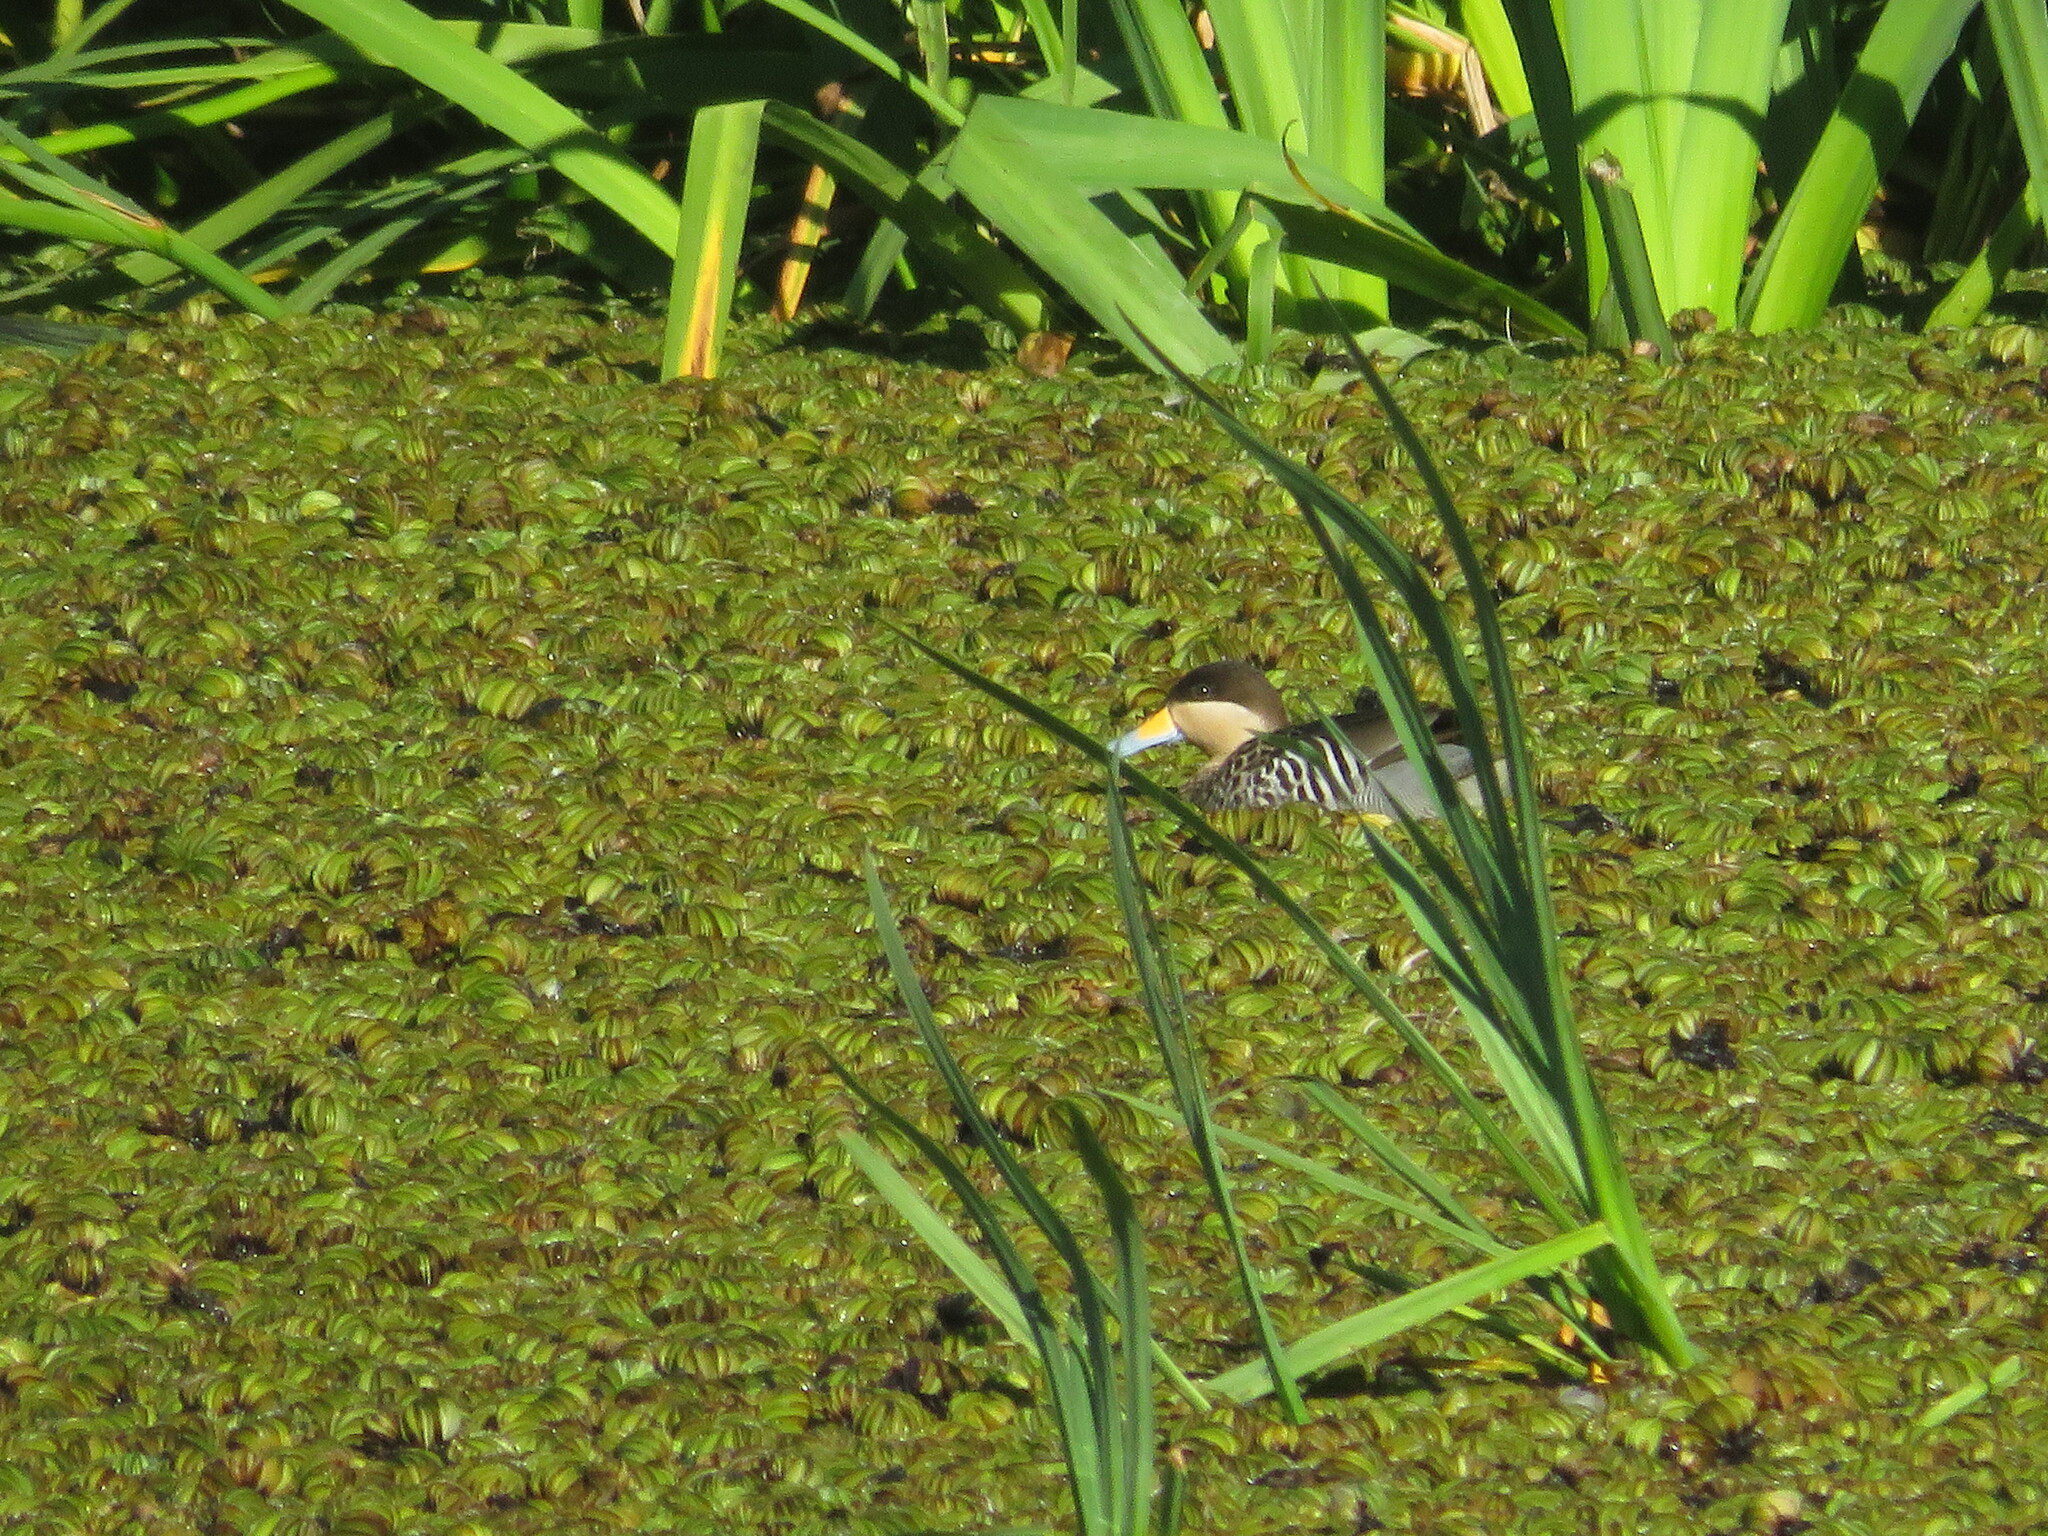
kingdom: Animalia
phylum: Chordata
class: Aves
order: Anseriformes
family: Anatidae
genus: Spatula
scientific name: Spatula versicolor
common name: Silver teal
